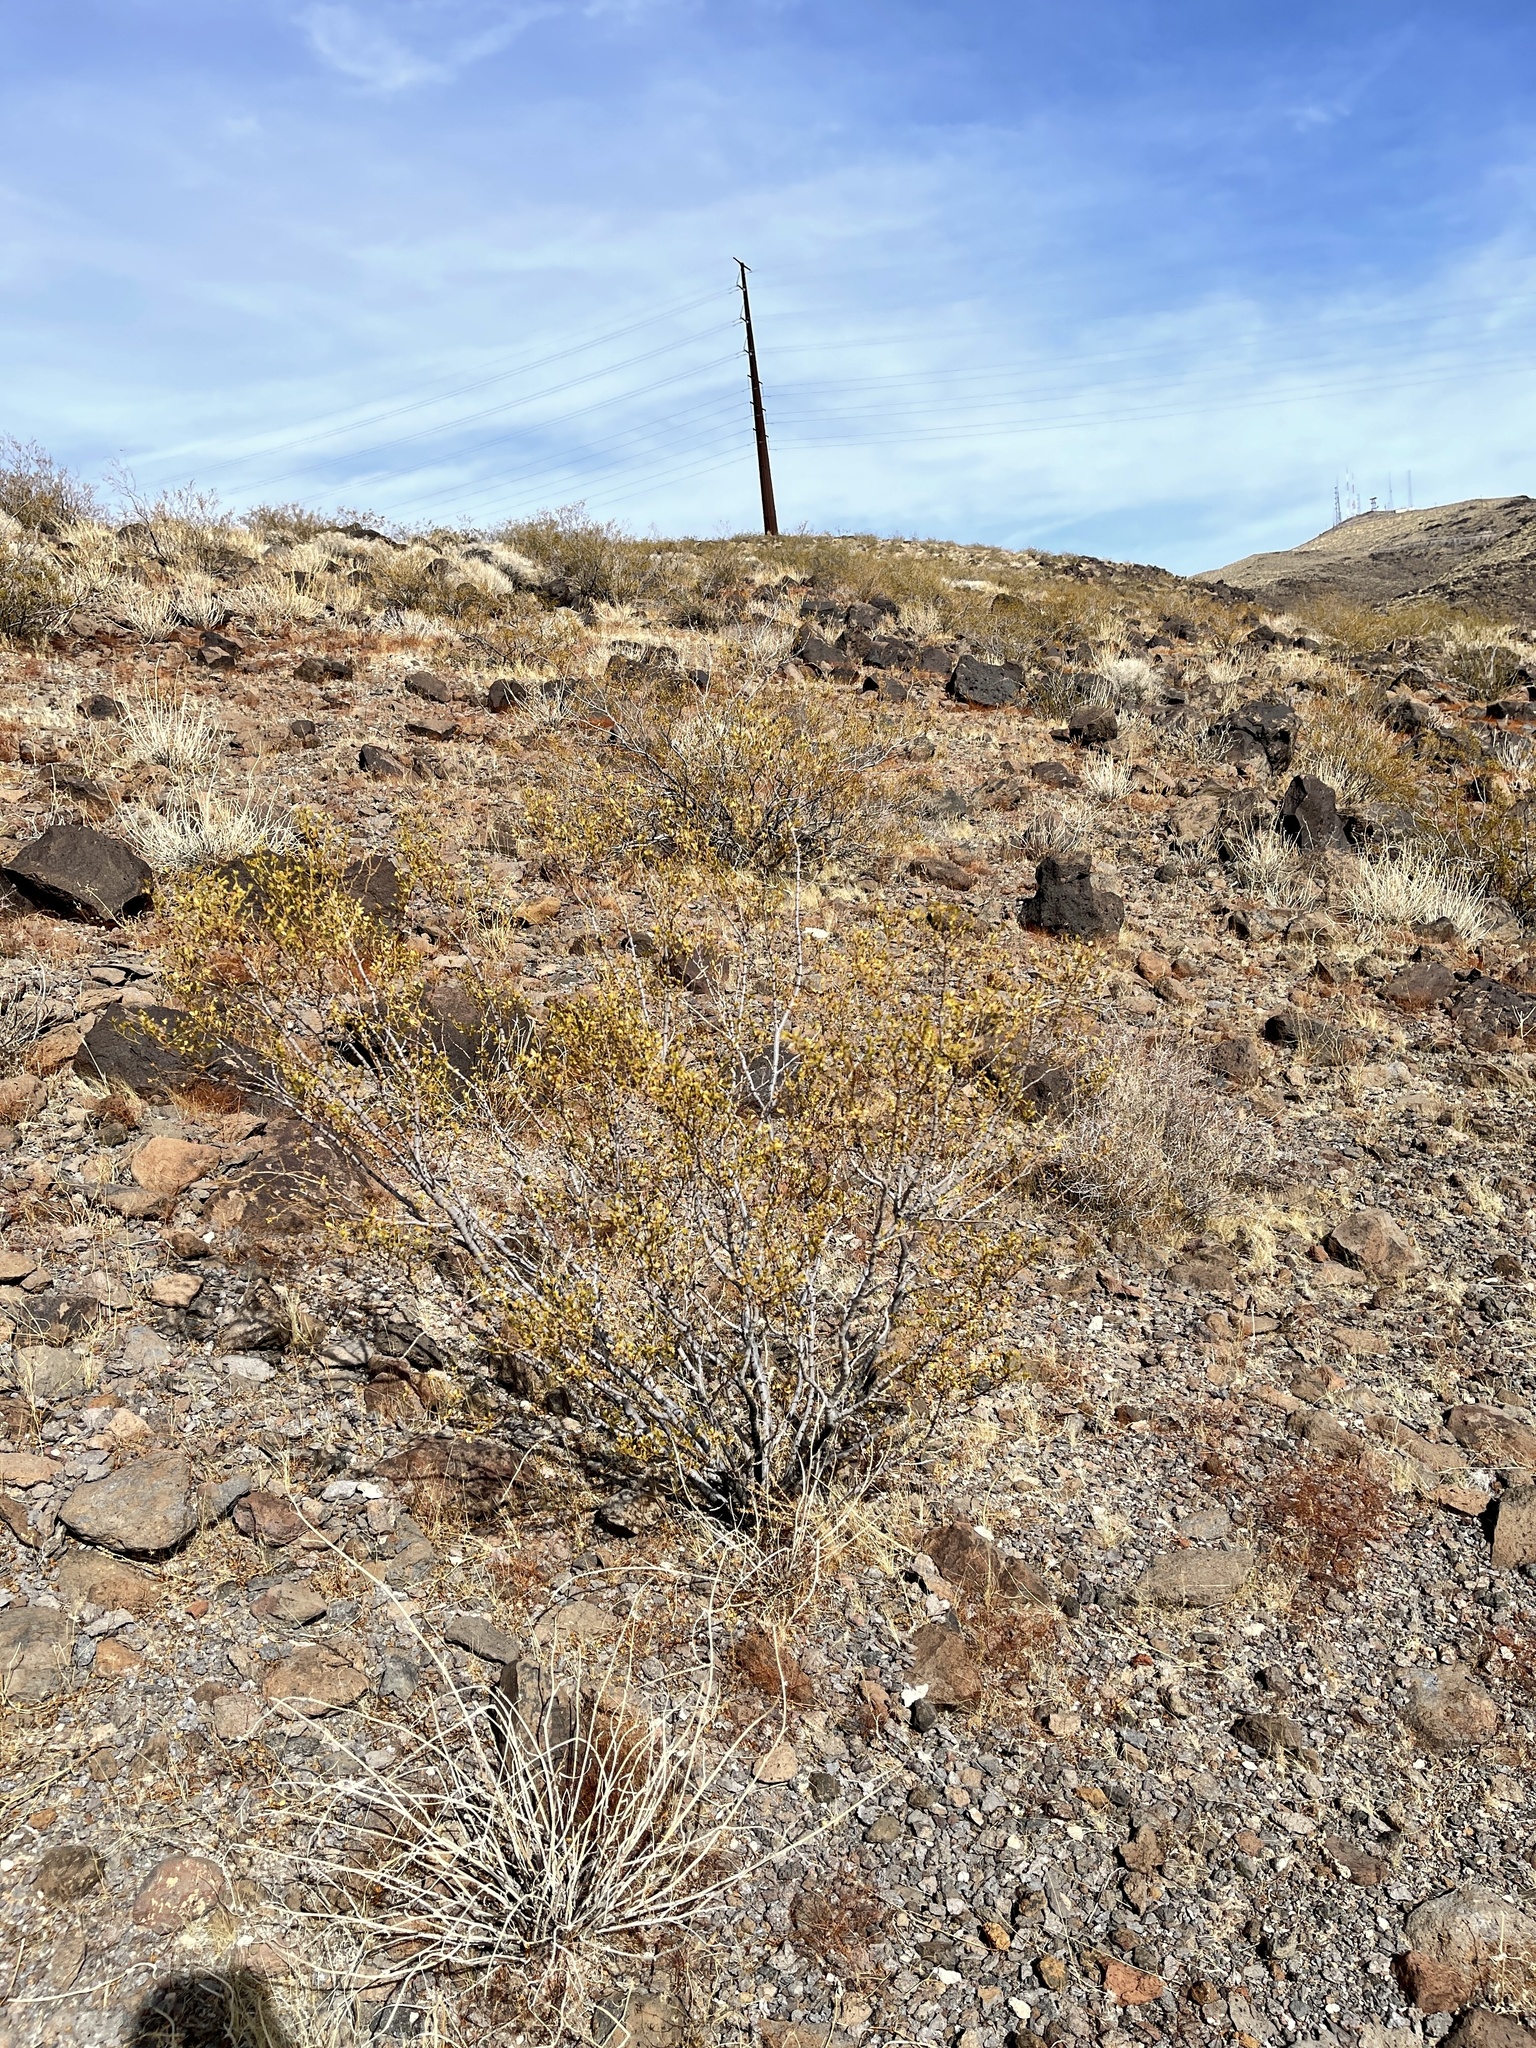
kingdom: Plantae
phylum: Tracheophyta
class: Magnoliopsida
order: Zygophyllales
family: Zygophyllaceae
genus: Larrea
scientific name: Larrea tridentata
